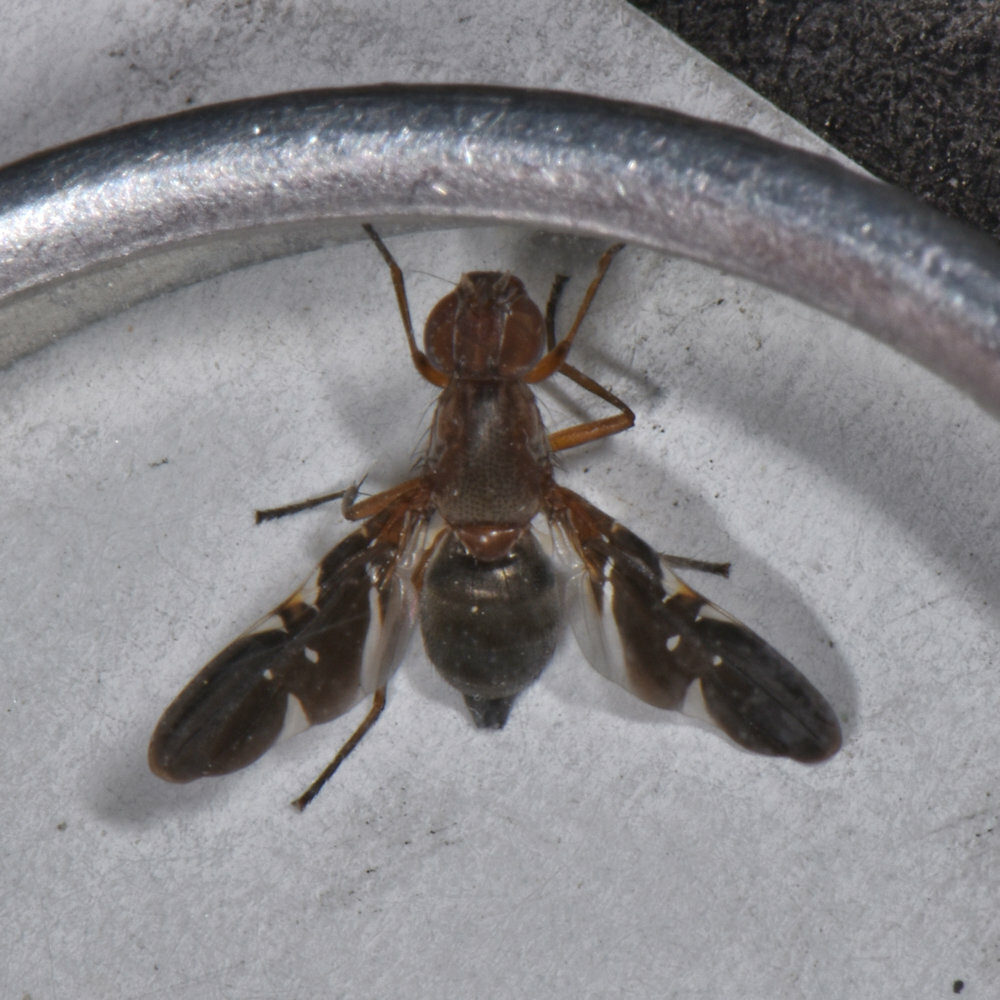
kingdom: Animalia
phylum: Arthropoda
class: Insecta
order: Diptera
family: Ulidiidae
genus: Delphinia
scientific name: Delphinia picta
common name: Common picture-winged fly
